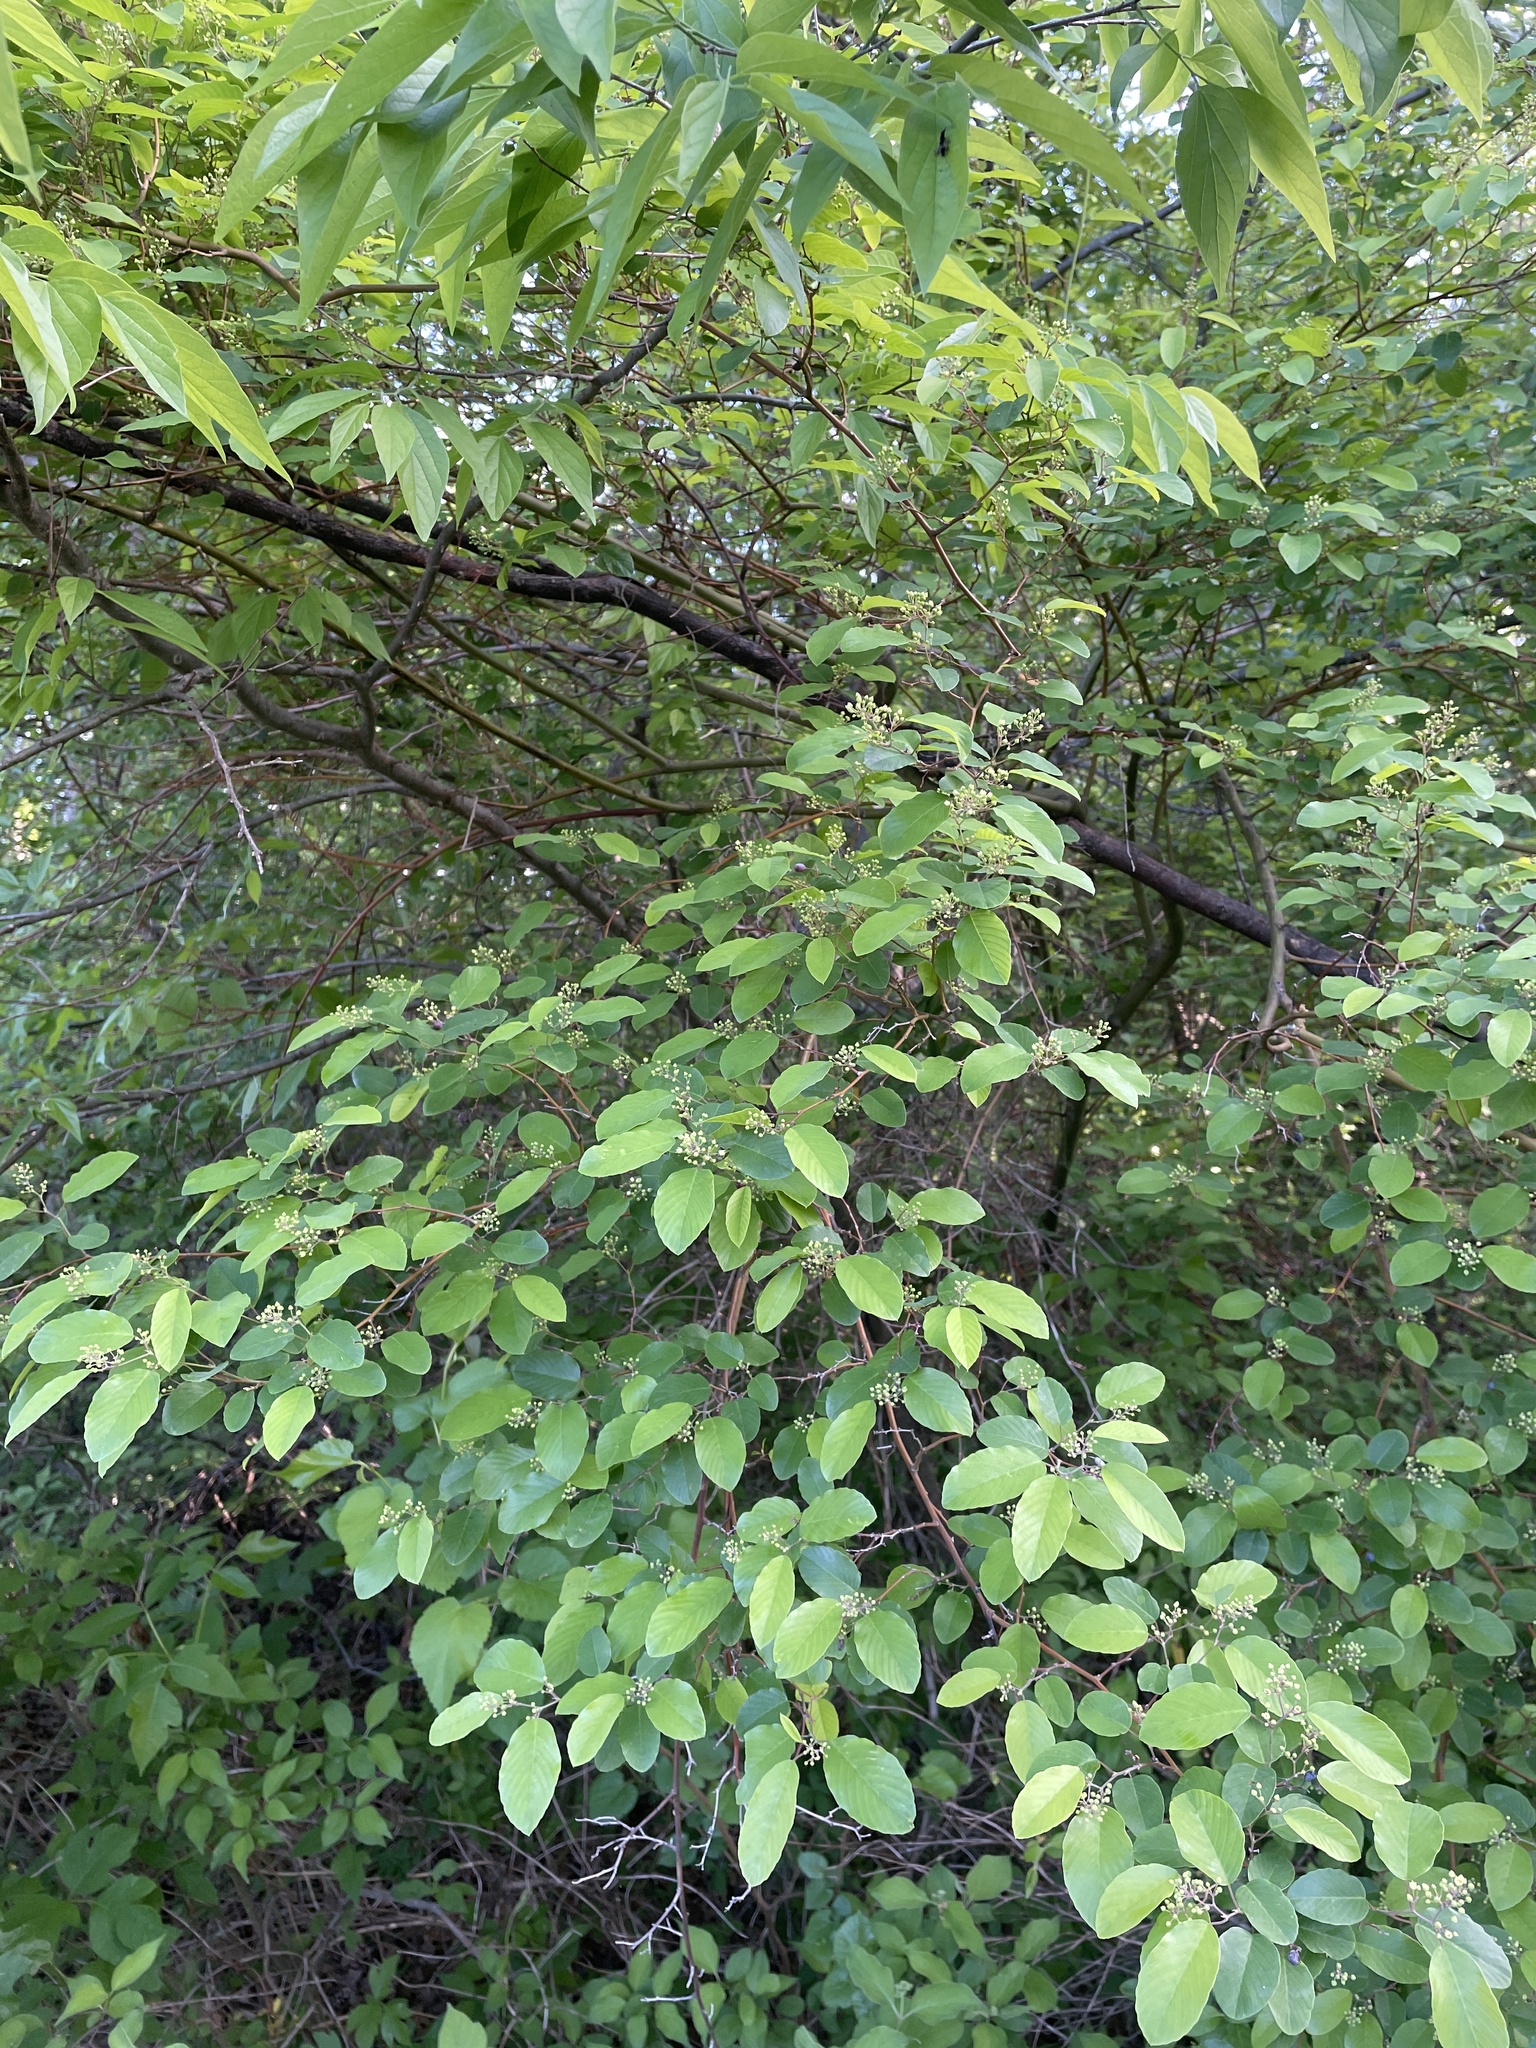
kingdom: Plantae
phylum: Tracheophyta
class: Magnoliopsida
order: Rosales
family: Rhamnaceae
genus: Berchemia
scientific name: Berchemia scandens
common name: Supplejack
